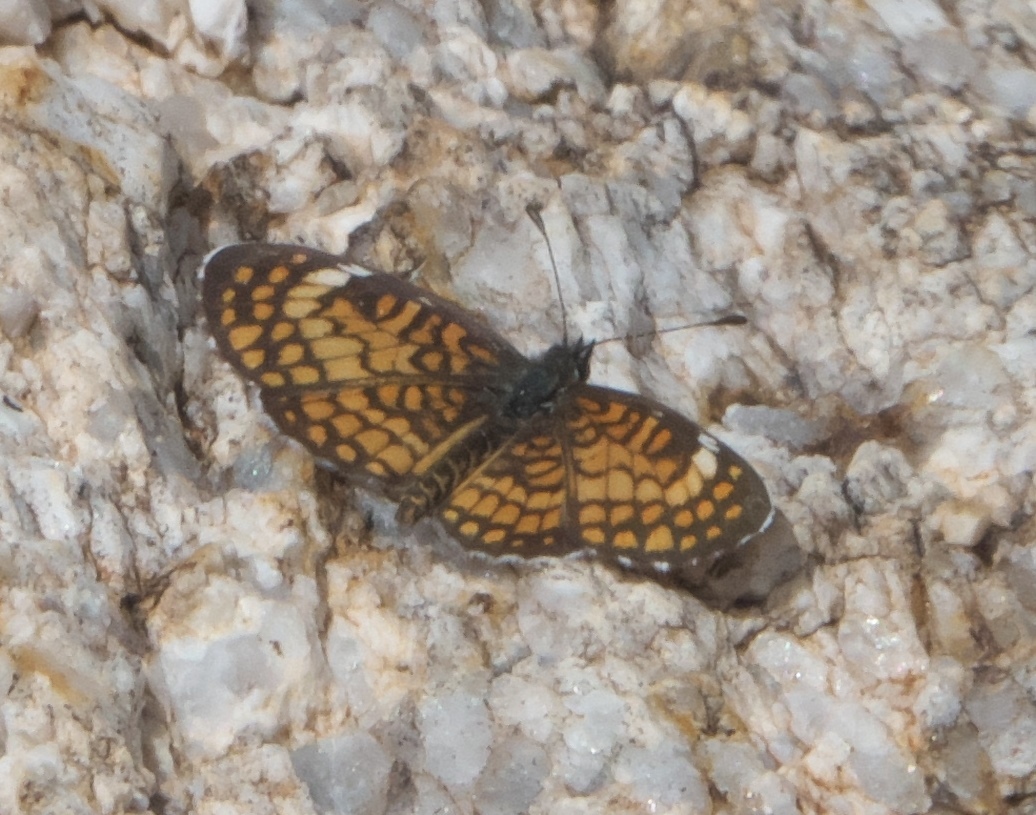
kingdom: Animalia
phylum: Arthropoda
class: Insecta
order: Lepidoptera
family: Nymphalidae
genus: Dymasia
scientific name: Dymasia dymas
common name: Tiny checkerspot
